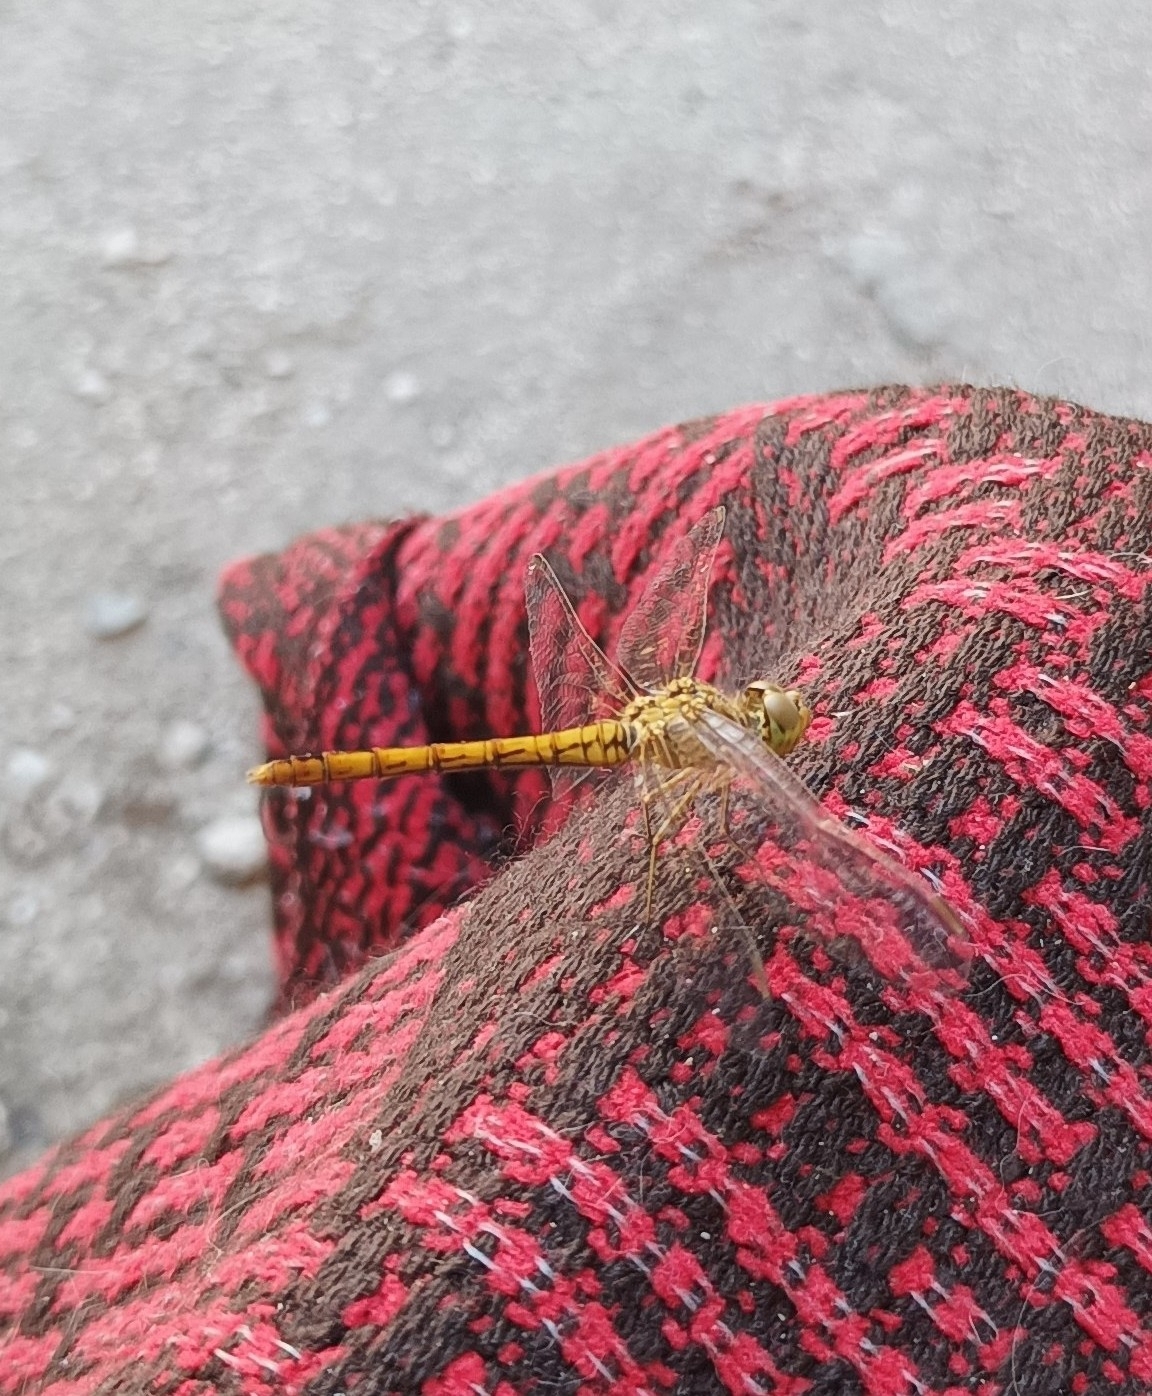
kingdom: Animalia
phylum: Arthropoda
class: Insecta
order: Odonata
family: Libellulidae
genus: Sympetrum
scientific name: Sympetrum meridionale
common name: Southern darter
